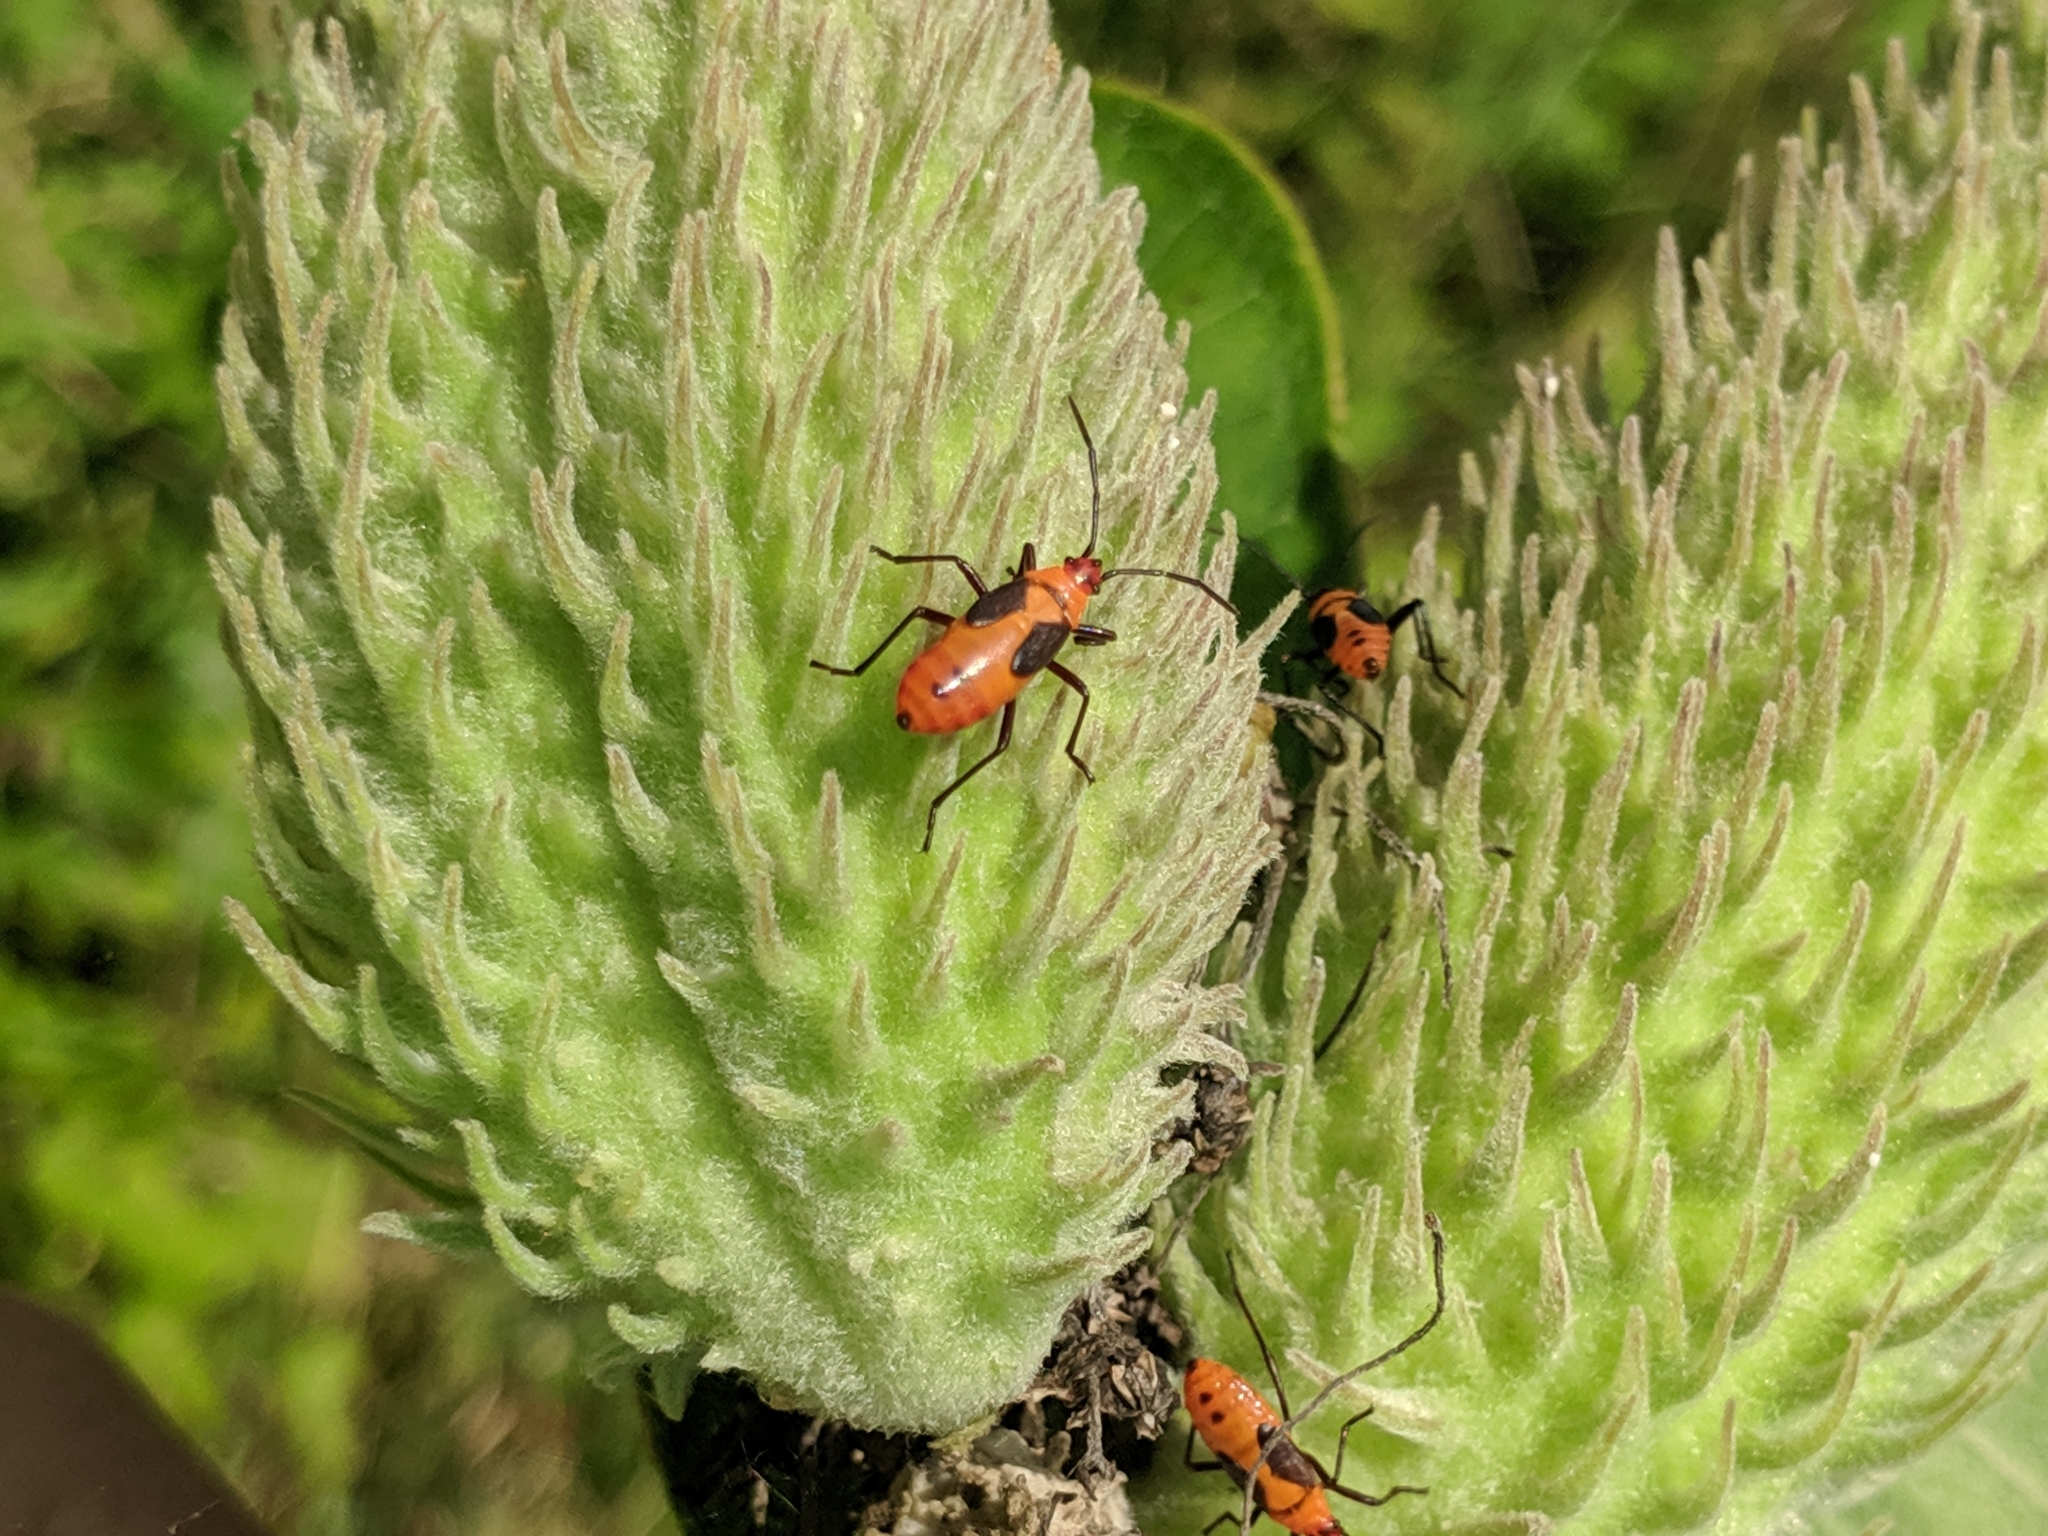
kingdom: Animalia
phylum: Arthropoda
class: Insecta
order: Hemiptera
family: Lygaeidae
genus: Oncopeltus
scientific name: Oncopeltus fasciatus
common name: Large milkweed bug
